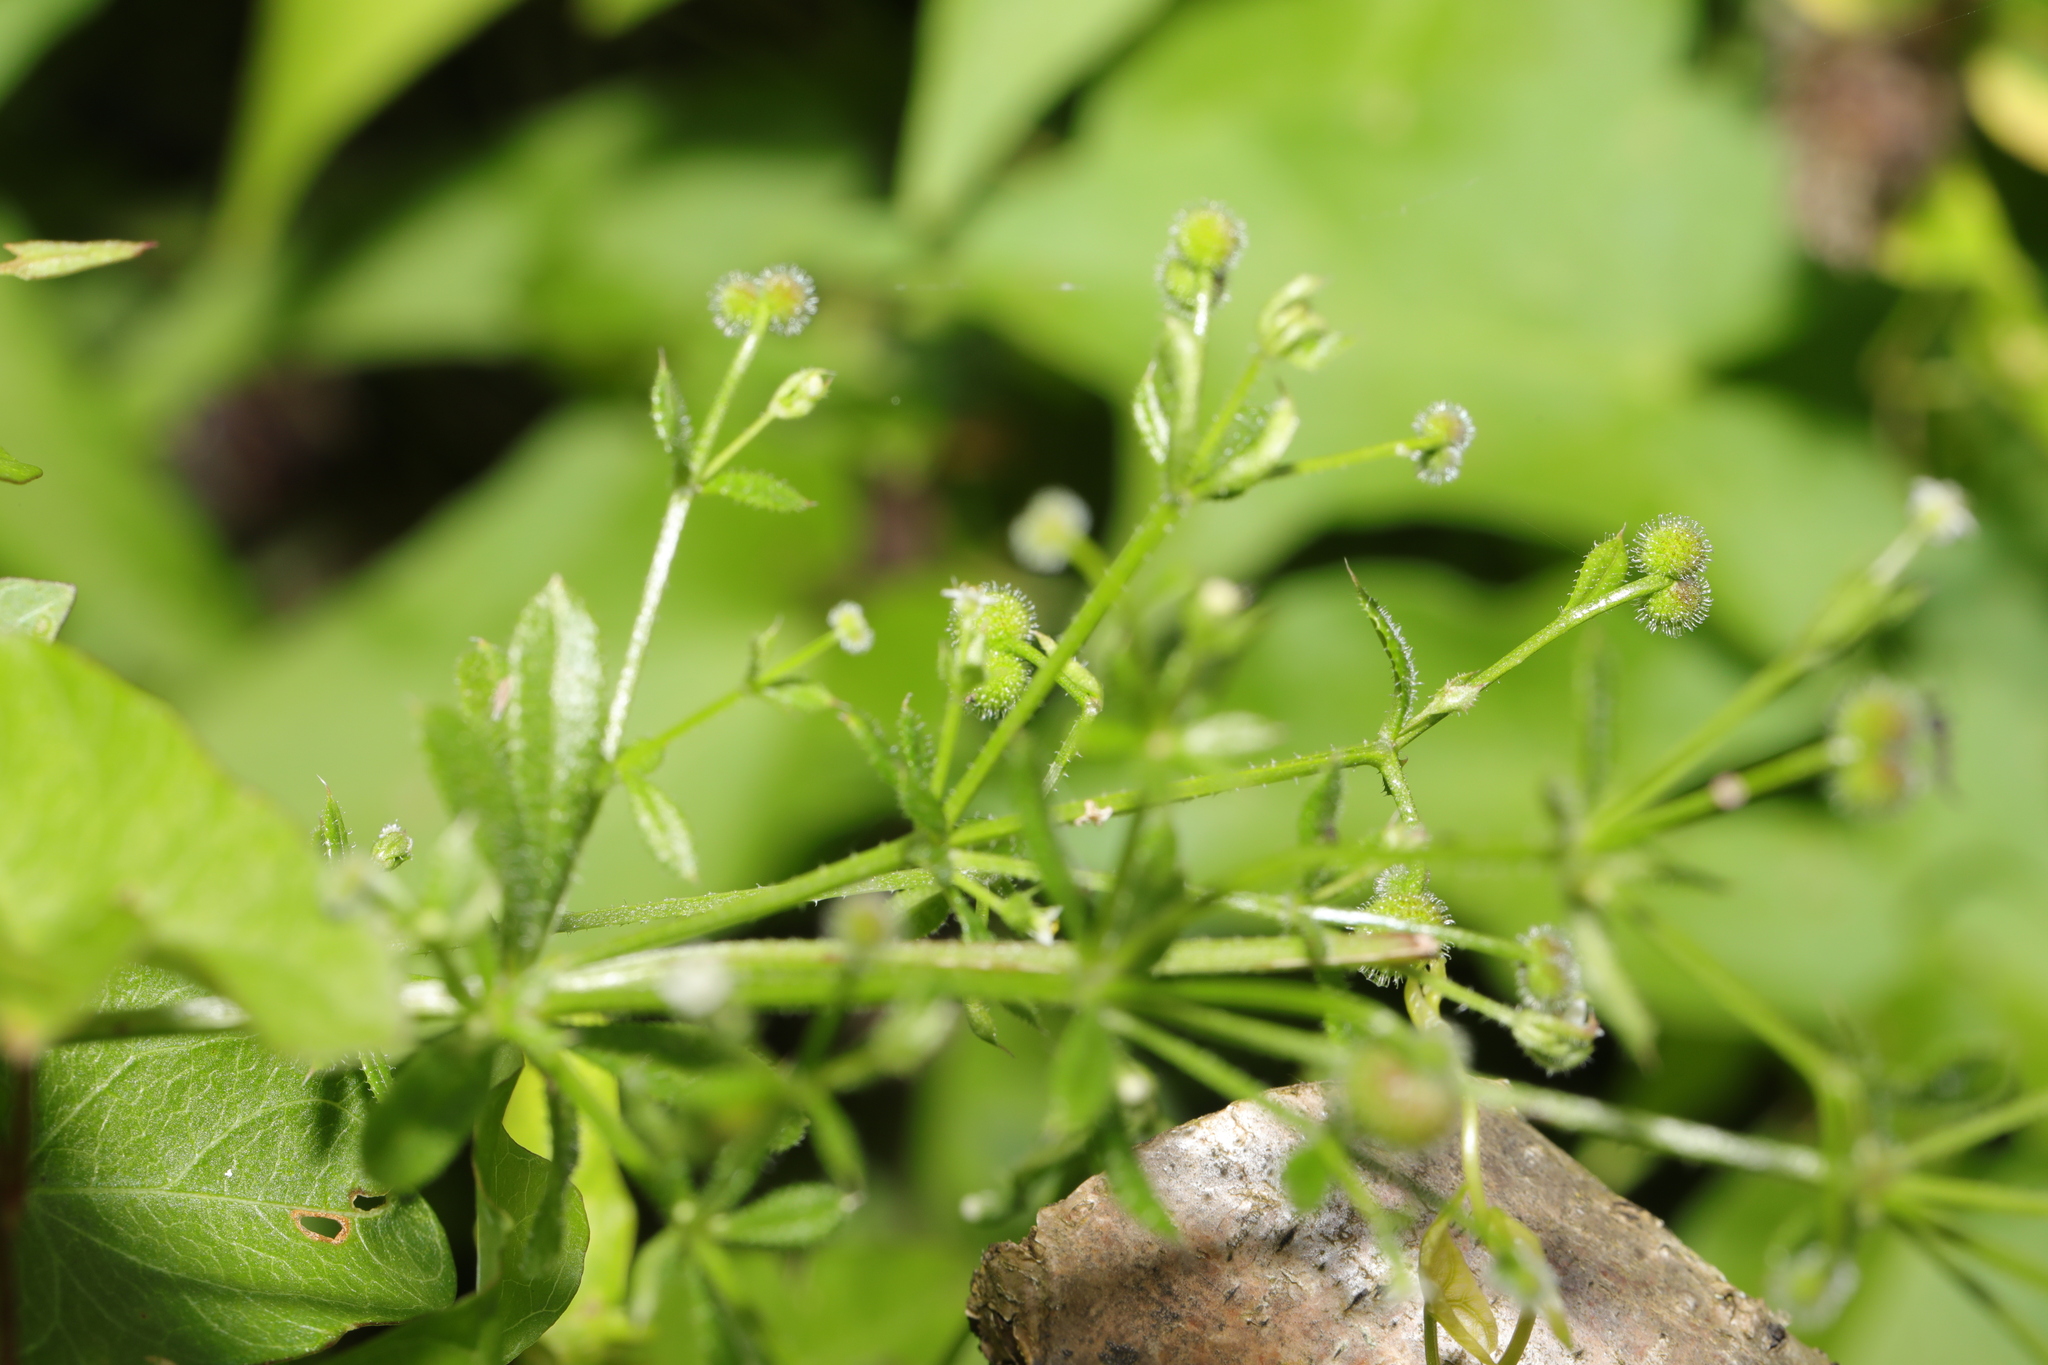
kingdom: Plantae
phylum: Tracheophyta
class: Magnoliopsida
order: Gentianales
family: Rubiaceae
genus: Galium
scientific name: Galium aparine
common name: Cleavers
